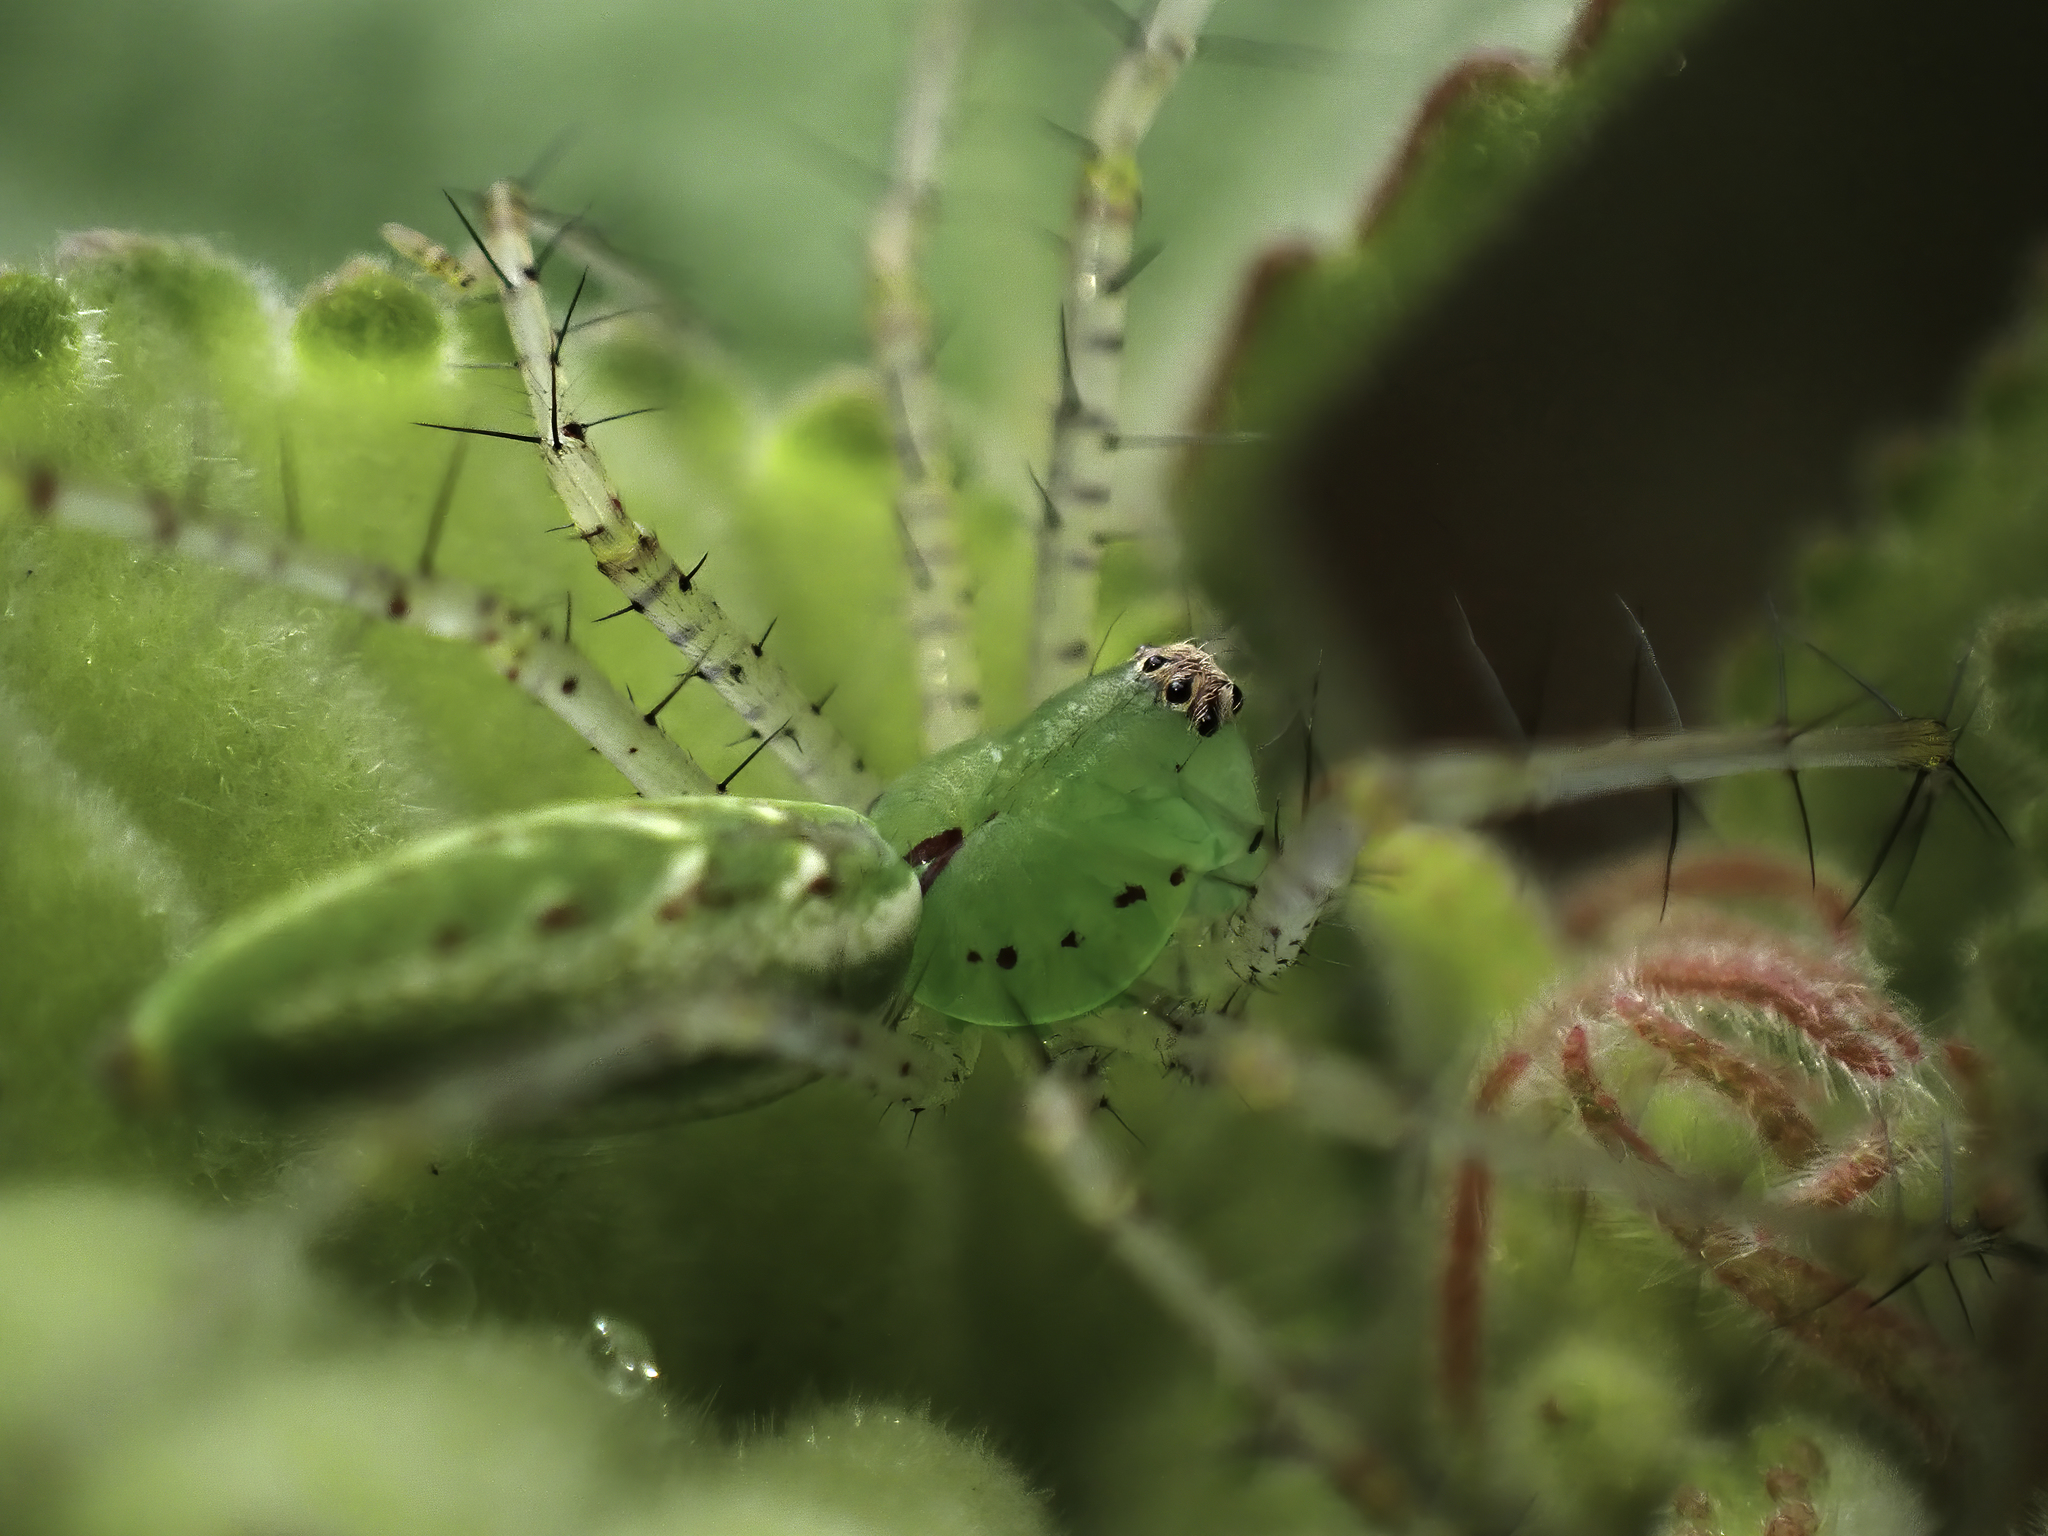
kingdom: Animalia
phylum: Arthropoda
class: Arachnida
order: Araneae
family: Oxyopidae
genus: Peucetia
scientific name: Peucetia viridans
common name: Lynx spiders
